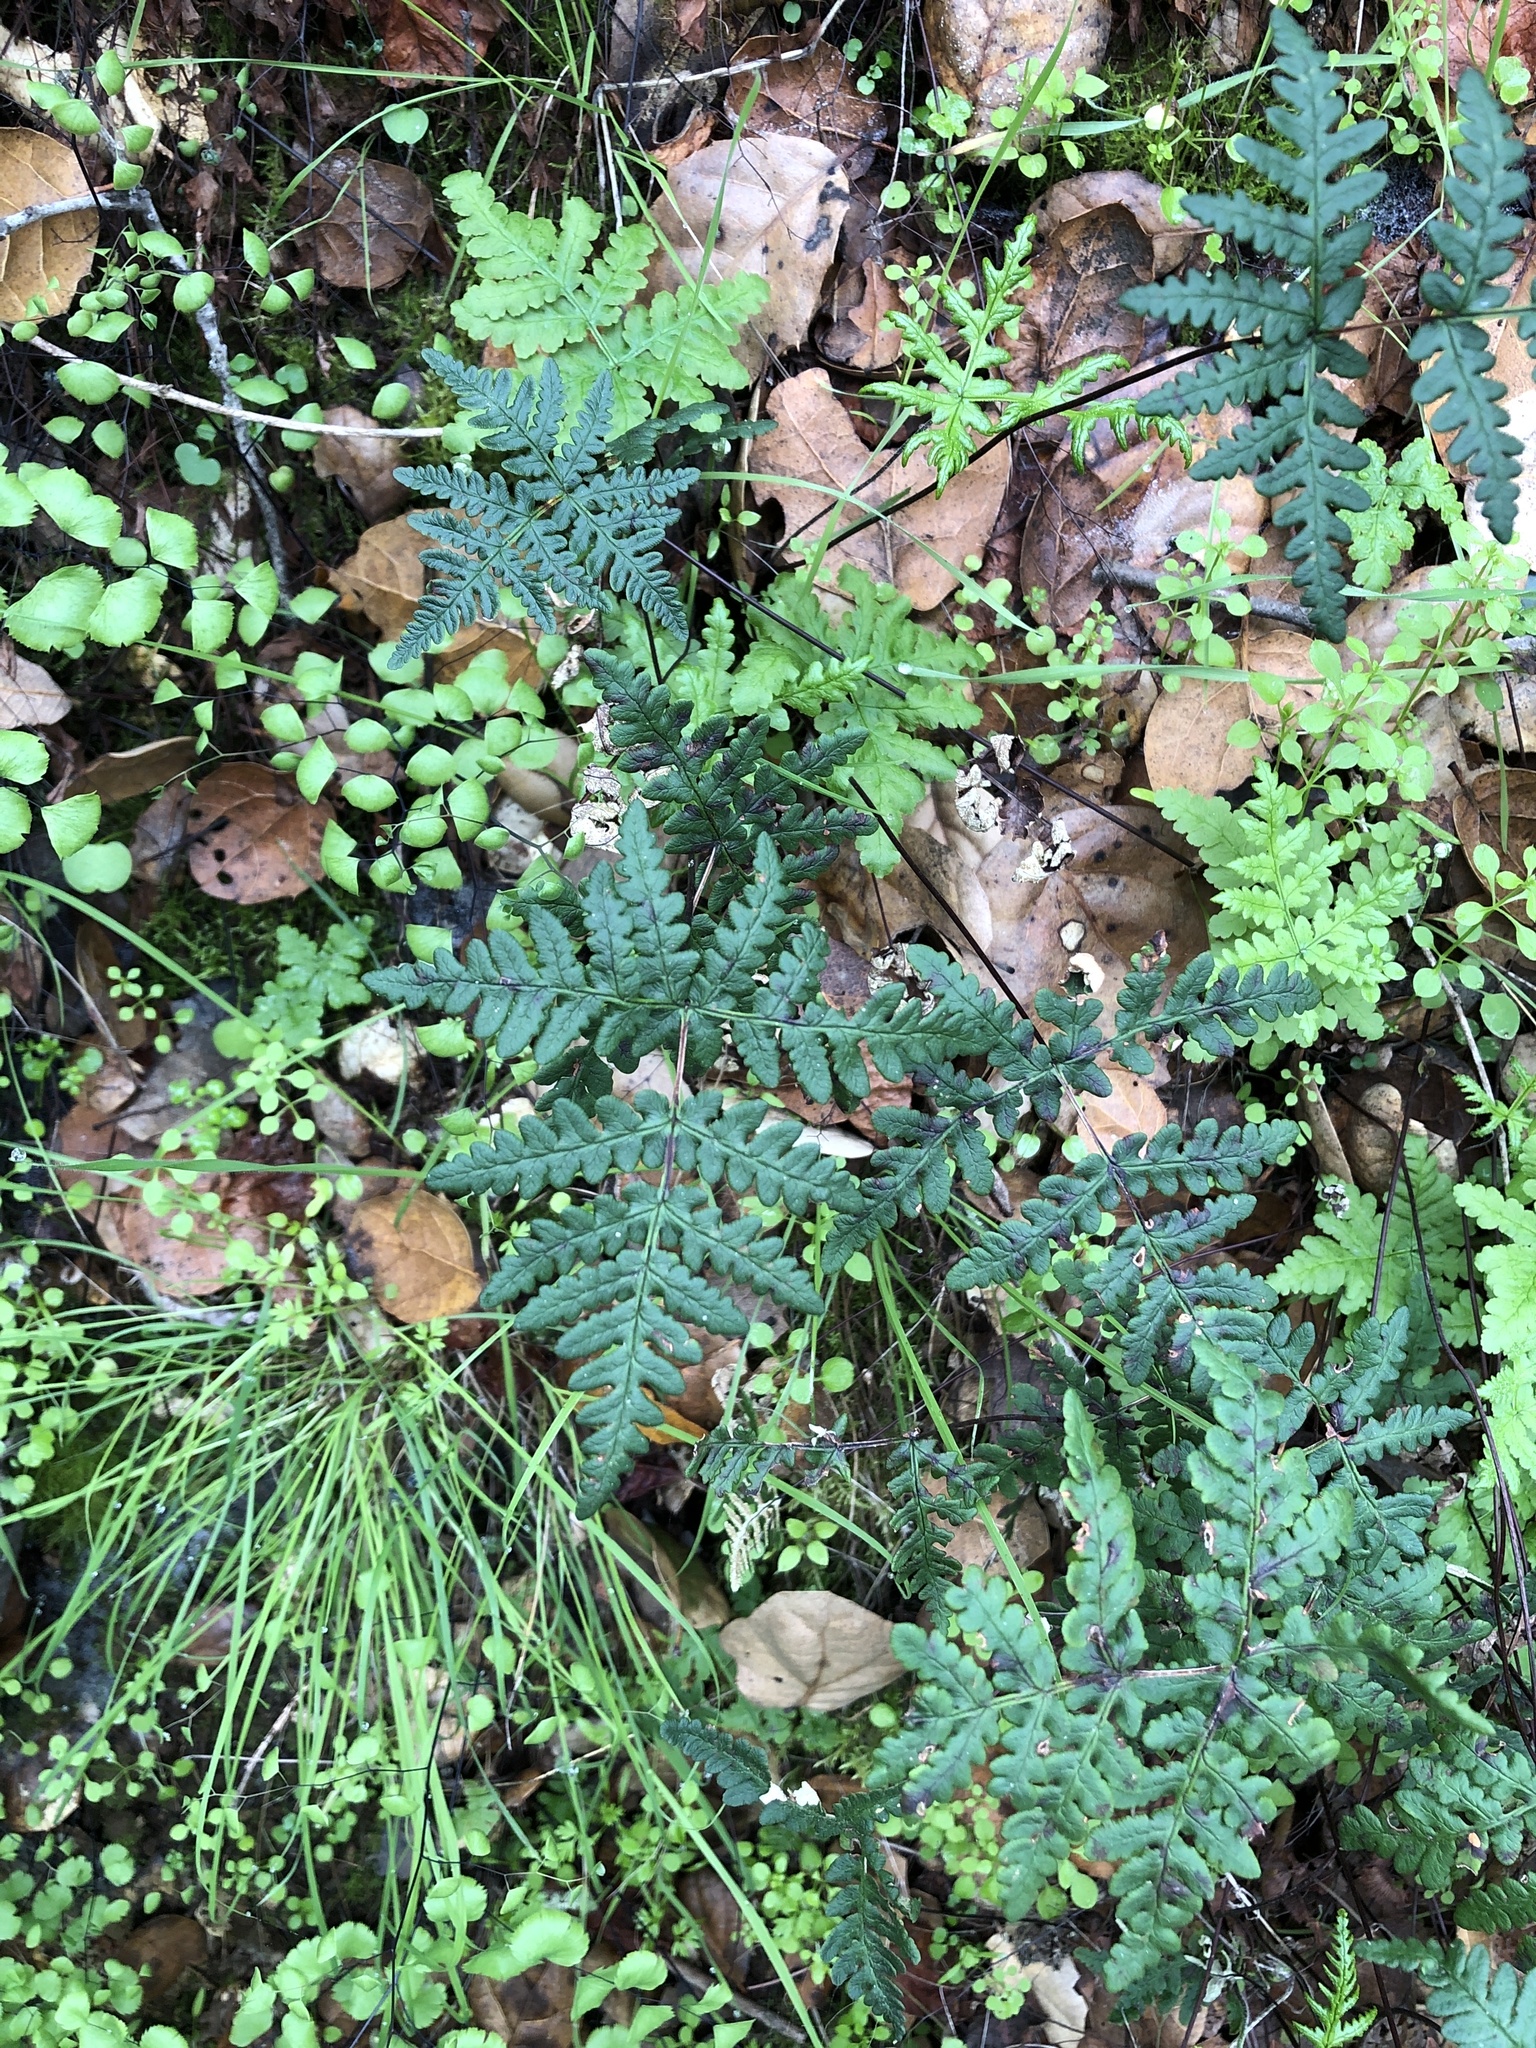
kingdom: Plantae
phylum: Tracheophyta
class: Polypodiopsida
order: Polypodiales
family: Pteridaceae
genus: Pentagramma
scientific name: Pentagramma triangularis
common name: Gold fern
